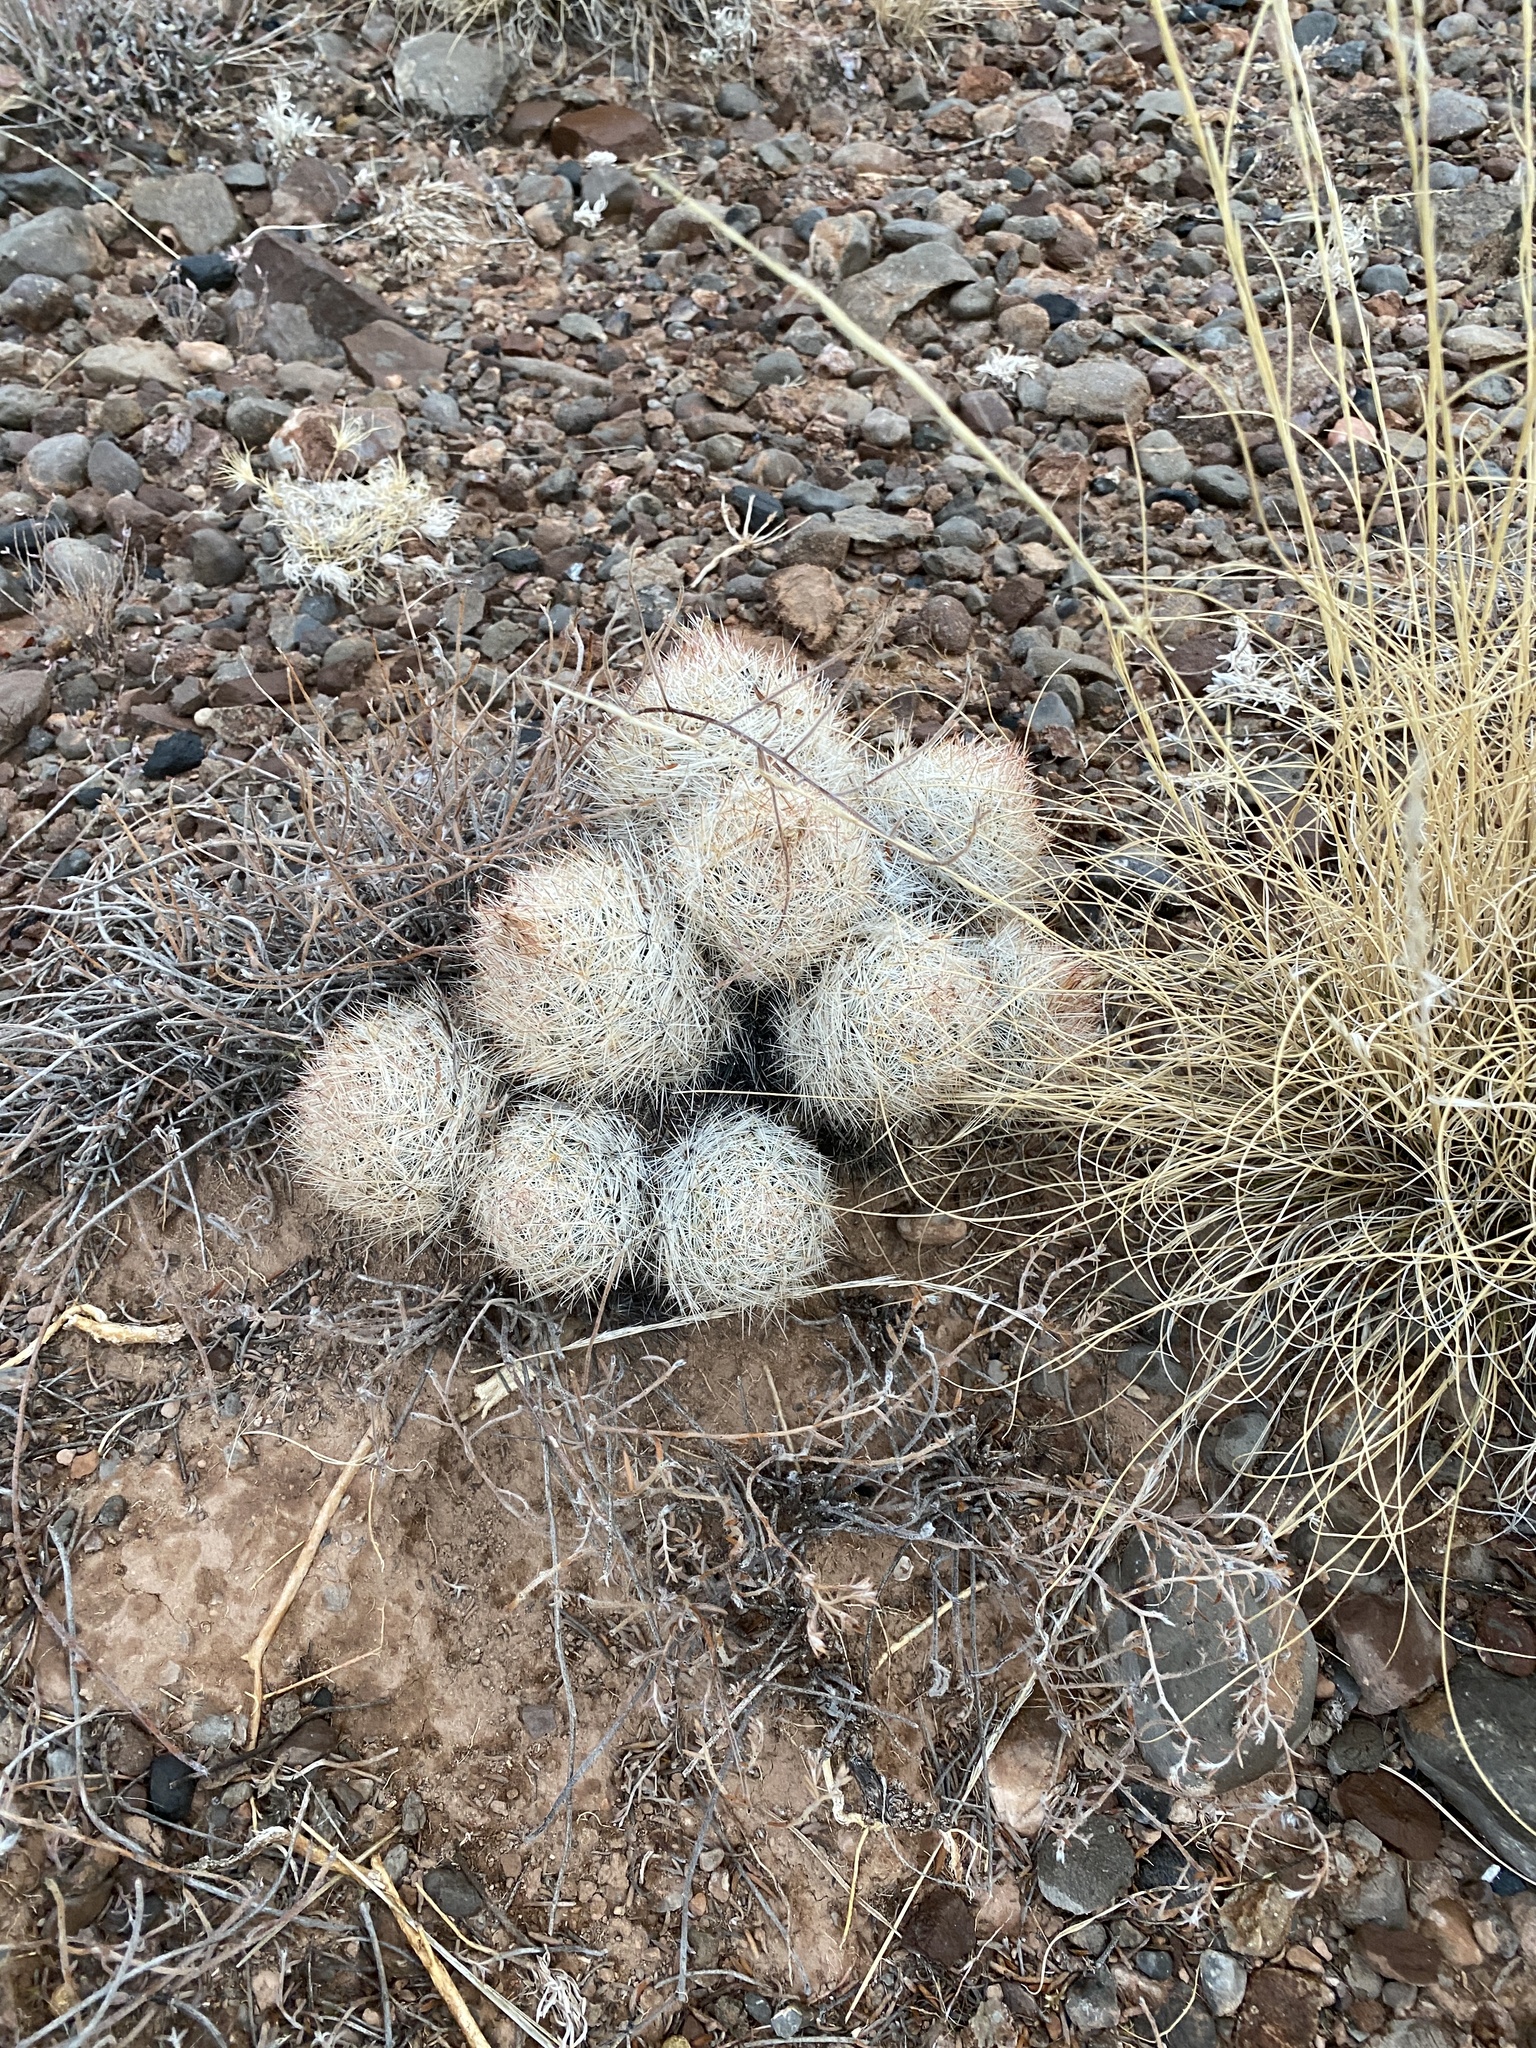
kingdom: Plantae
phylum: Tracheophyta
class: Magnoliopsida
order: Caryophyllales
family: Cactaceae
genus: Pelecyphora
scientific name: Pelecyphora sneedii
